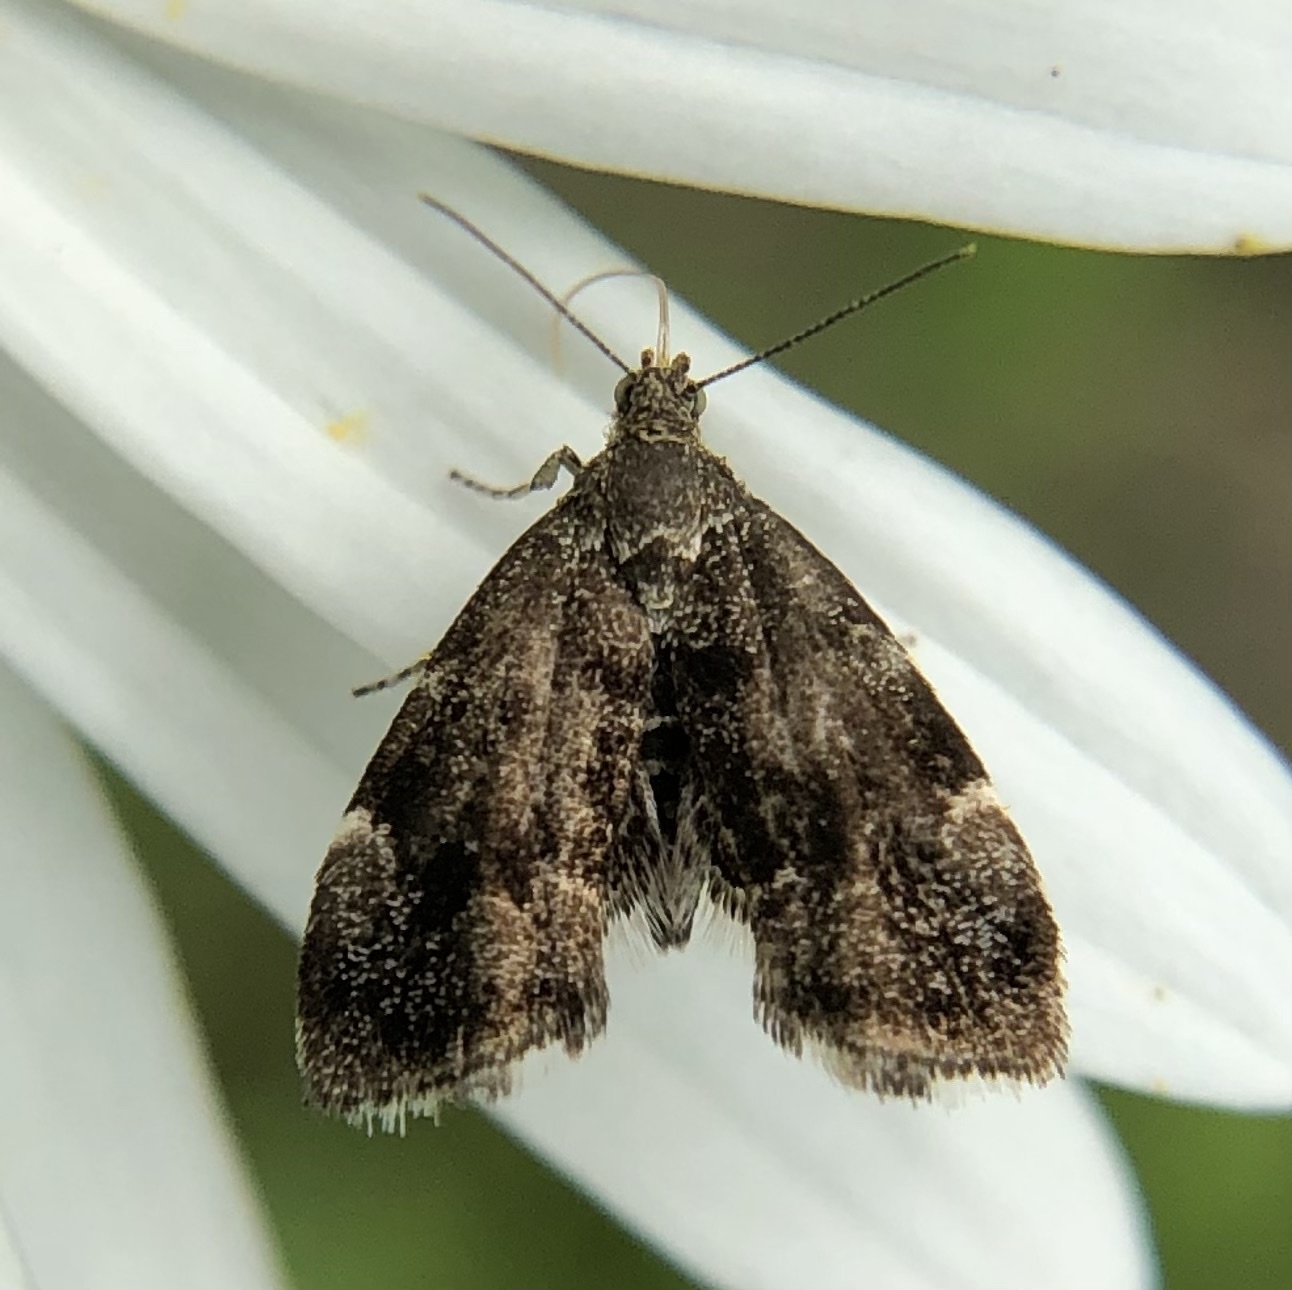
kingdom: Animalia
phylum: Arthropoda
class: Insecta
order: Lepidoptera
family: Choreutidae
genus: Anthophila
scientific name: Anthophila fabriciana
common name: Nettle-tap
